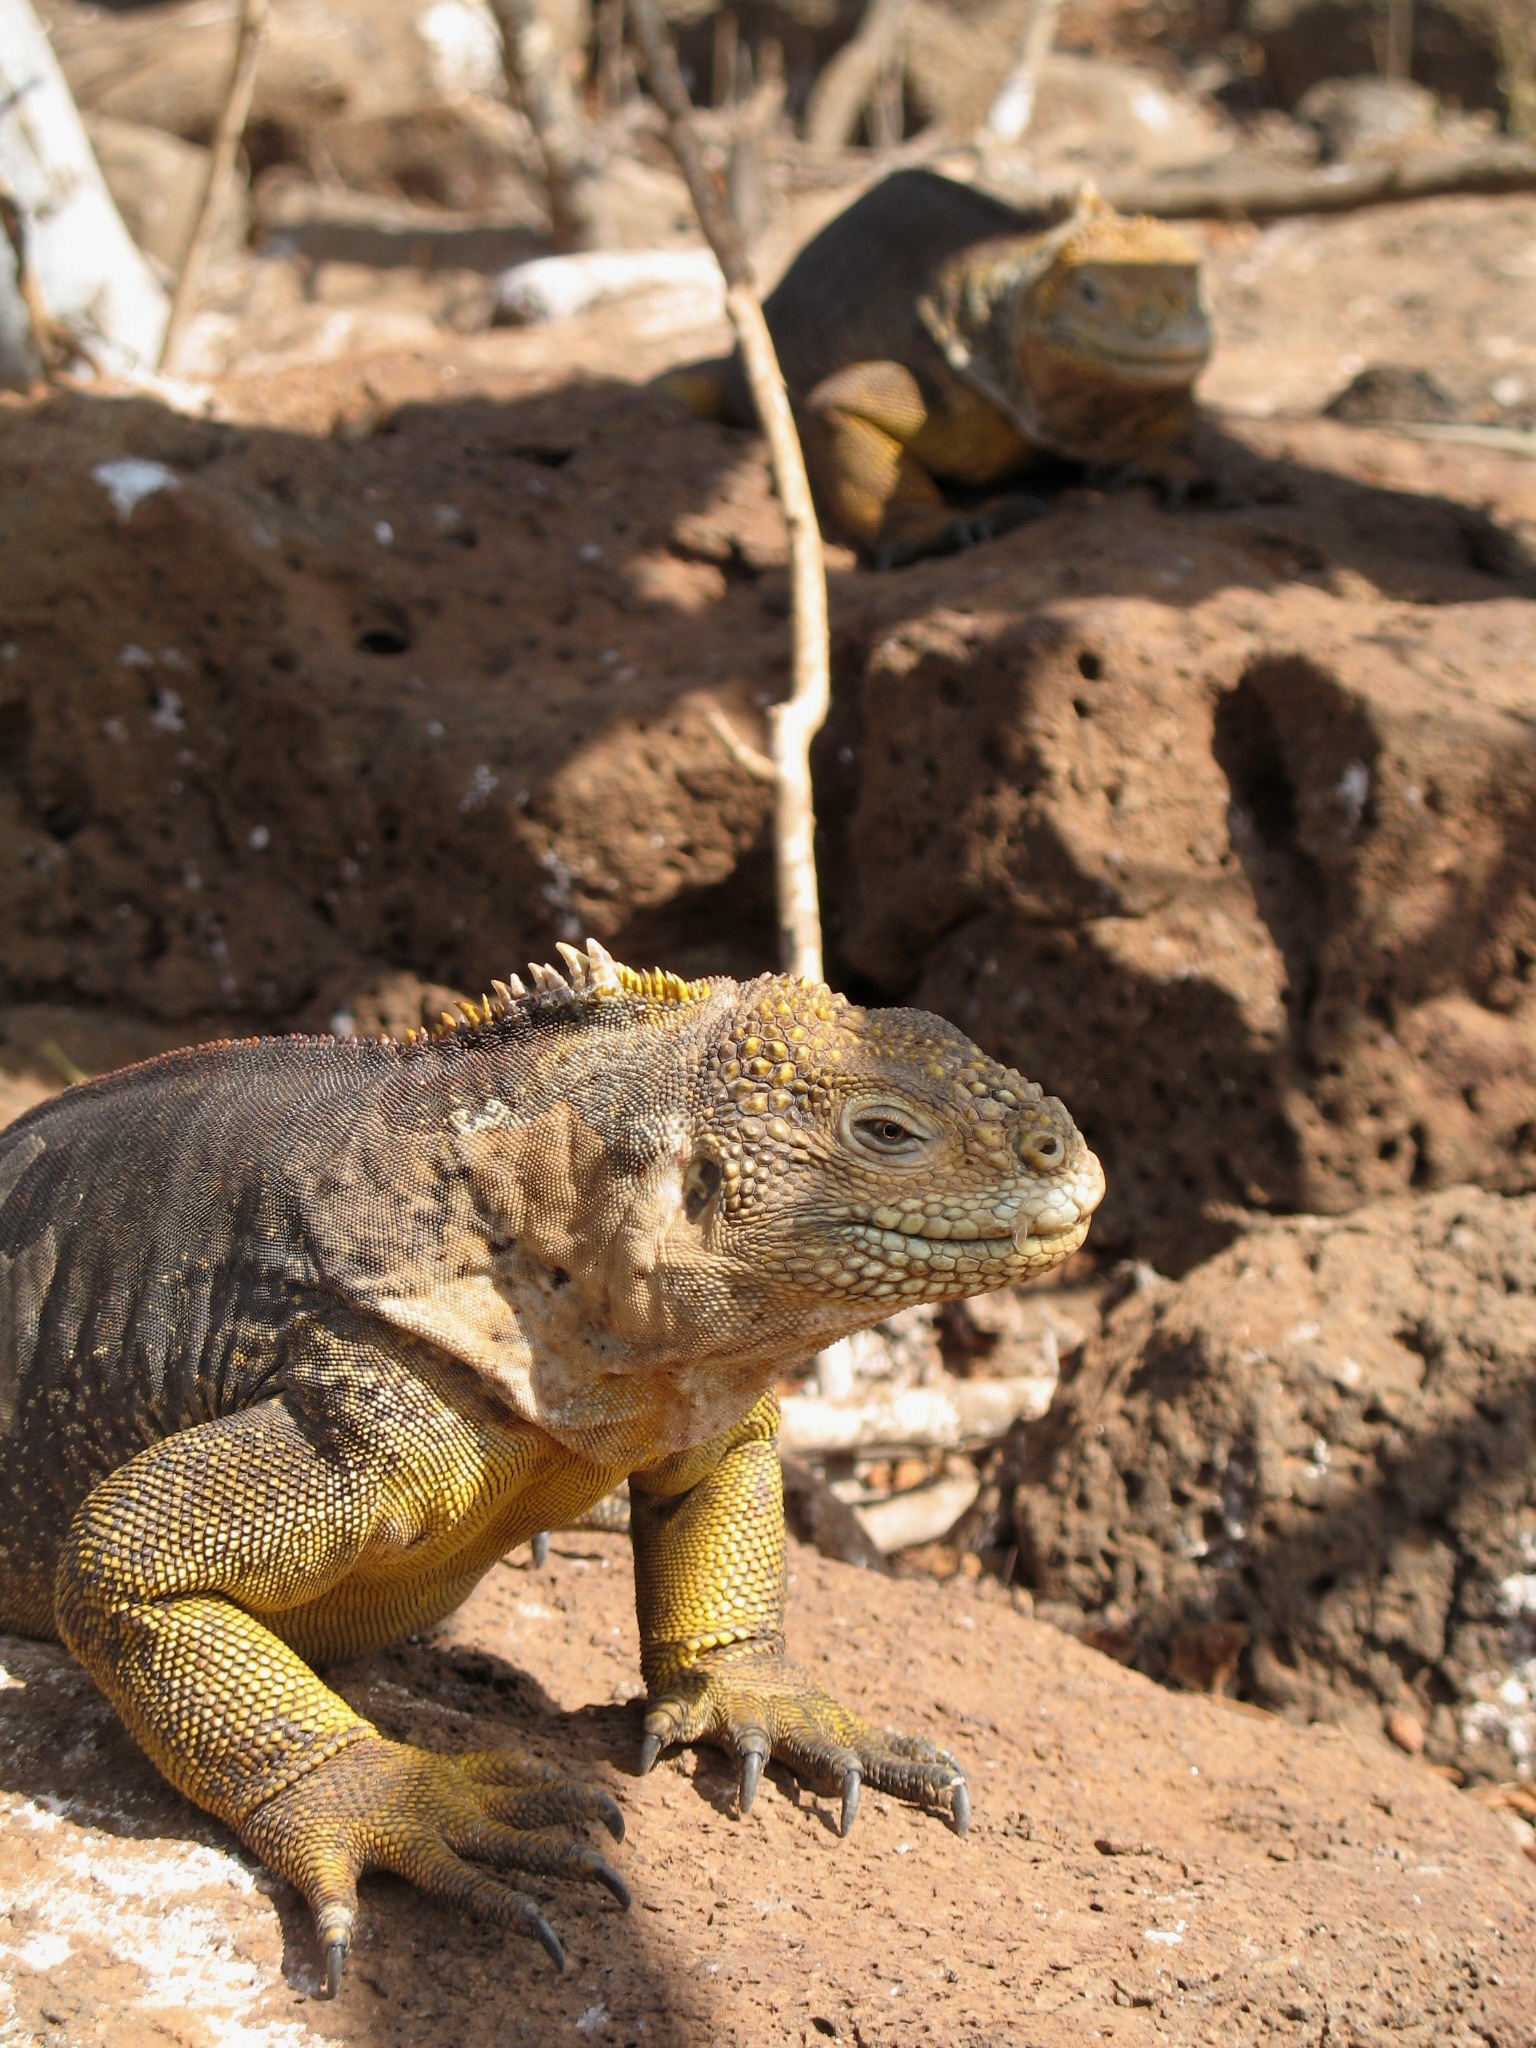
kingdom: Animalia
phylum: Chordata
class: Squamata
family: Iguanidae
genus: Conolophus
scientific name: Conolophus subcristatus
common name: Galapagos land iguana
